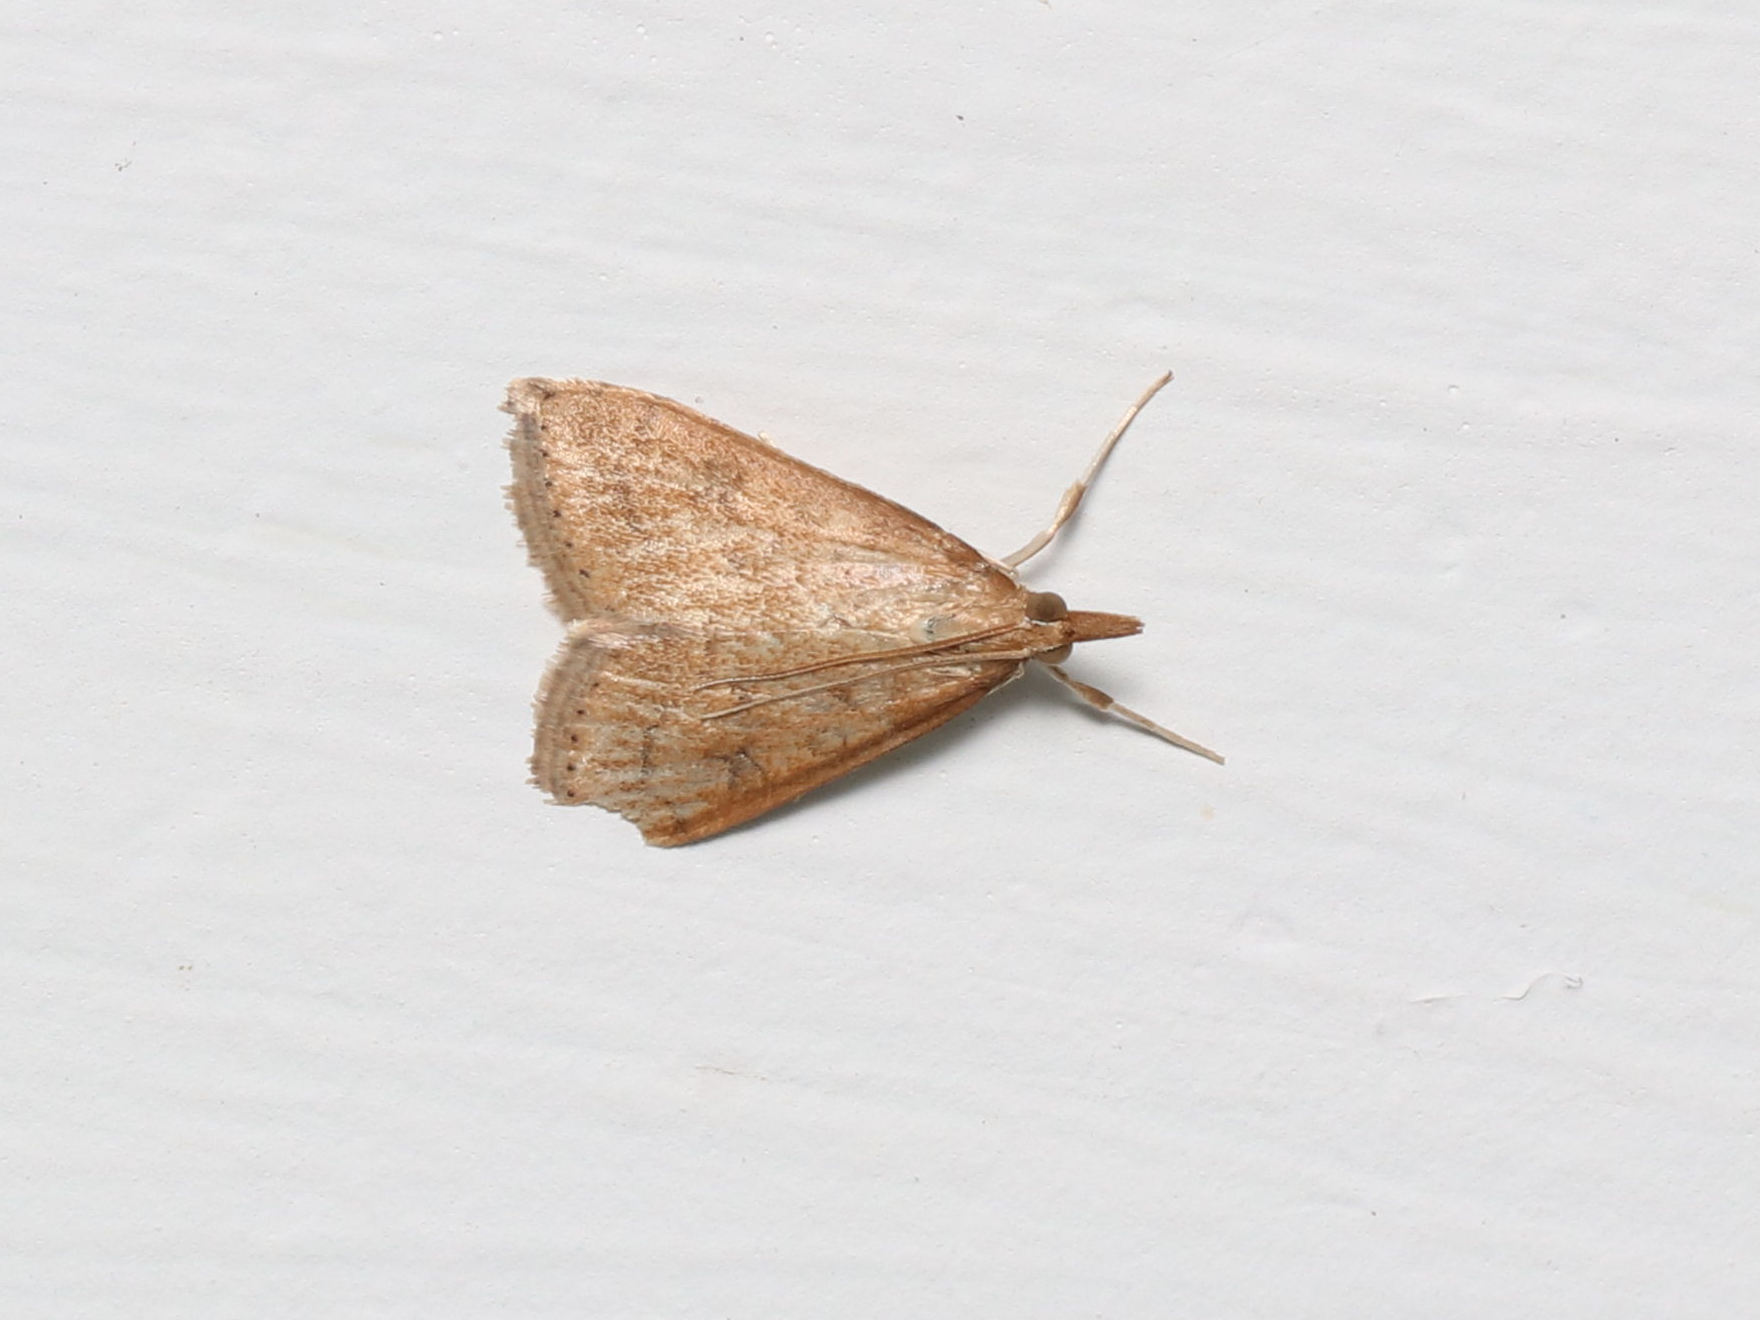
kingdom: Animalia
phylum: Arthropoda
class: Insecta
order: Lepidoptera
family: Crambidae
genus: Udea
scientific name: Udea rubigalis
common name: Celery leaftier moth
